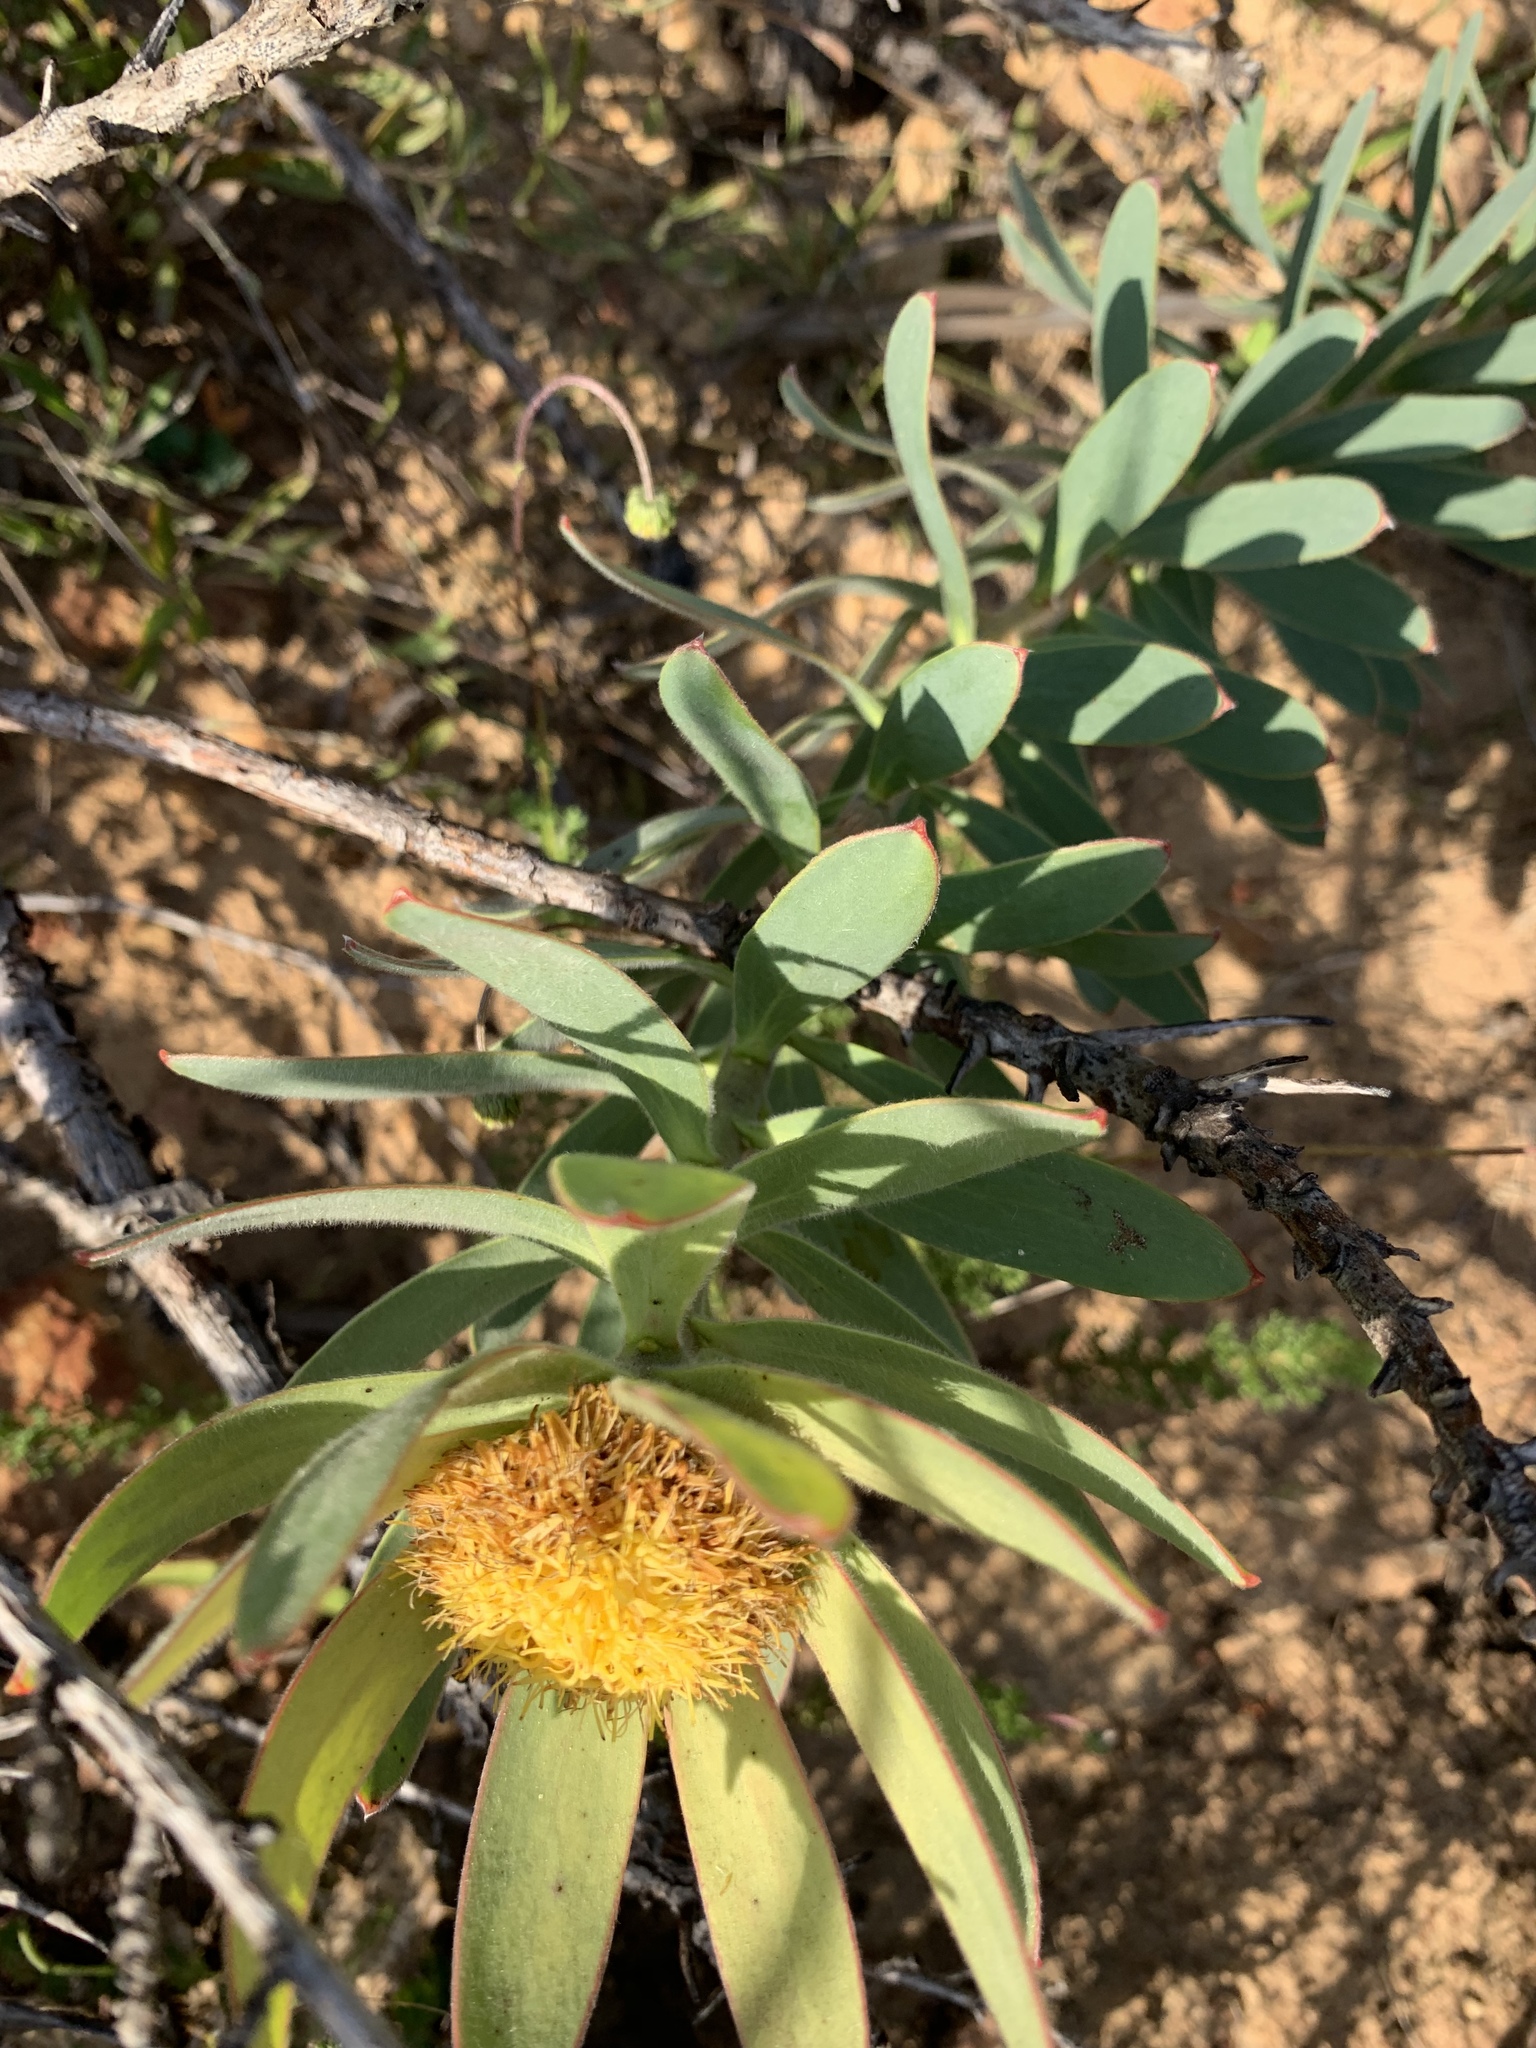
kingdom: Plantae
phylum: Tracheophyta
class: Magnoliopsida
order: Proteales
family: Proteaceae
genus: Leucadendron
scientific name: Leucadendron sessile
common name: Western sunbush
